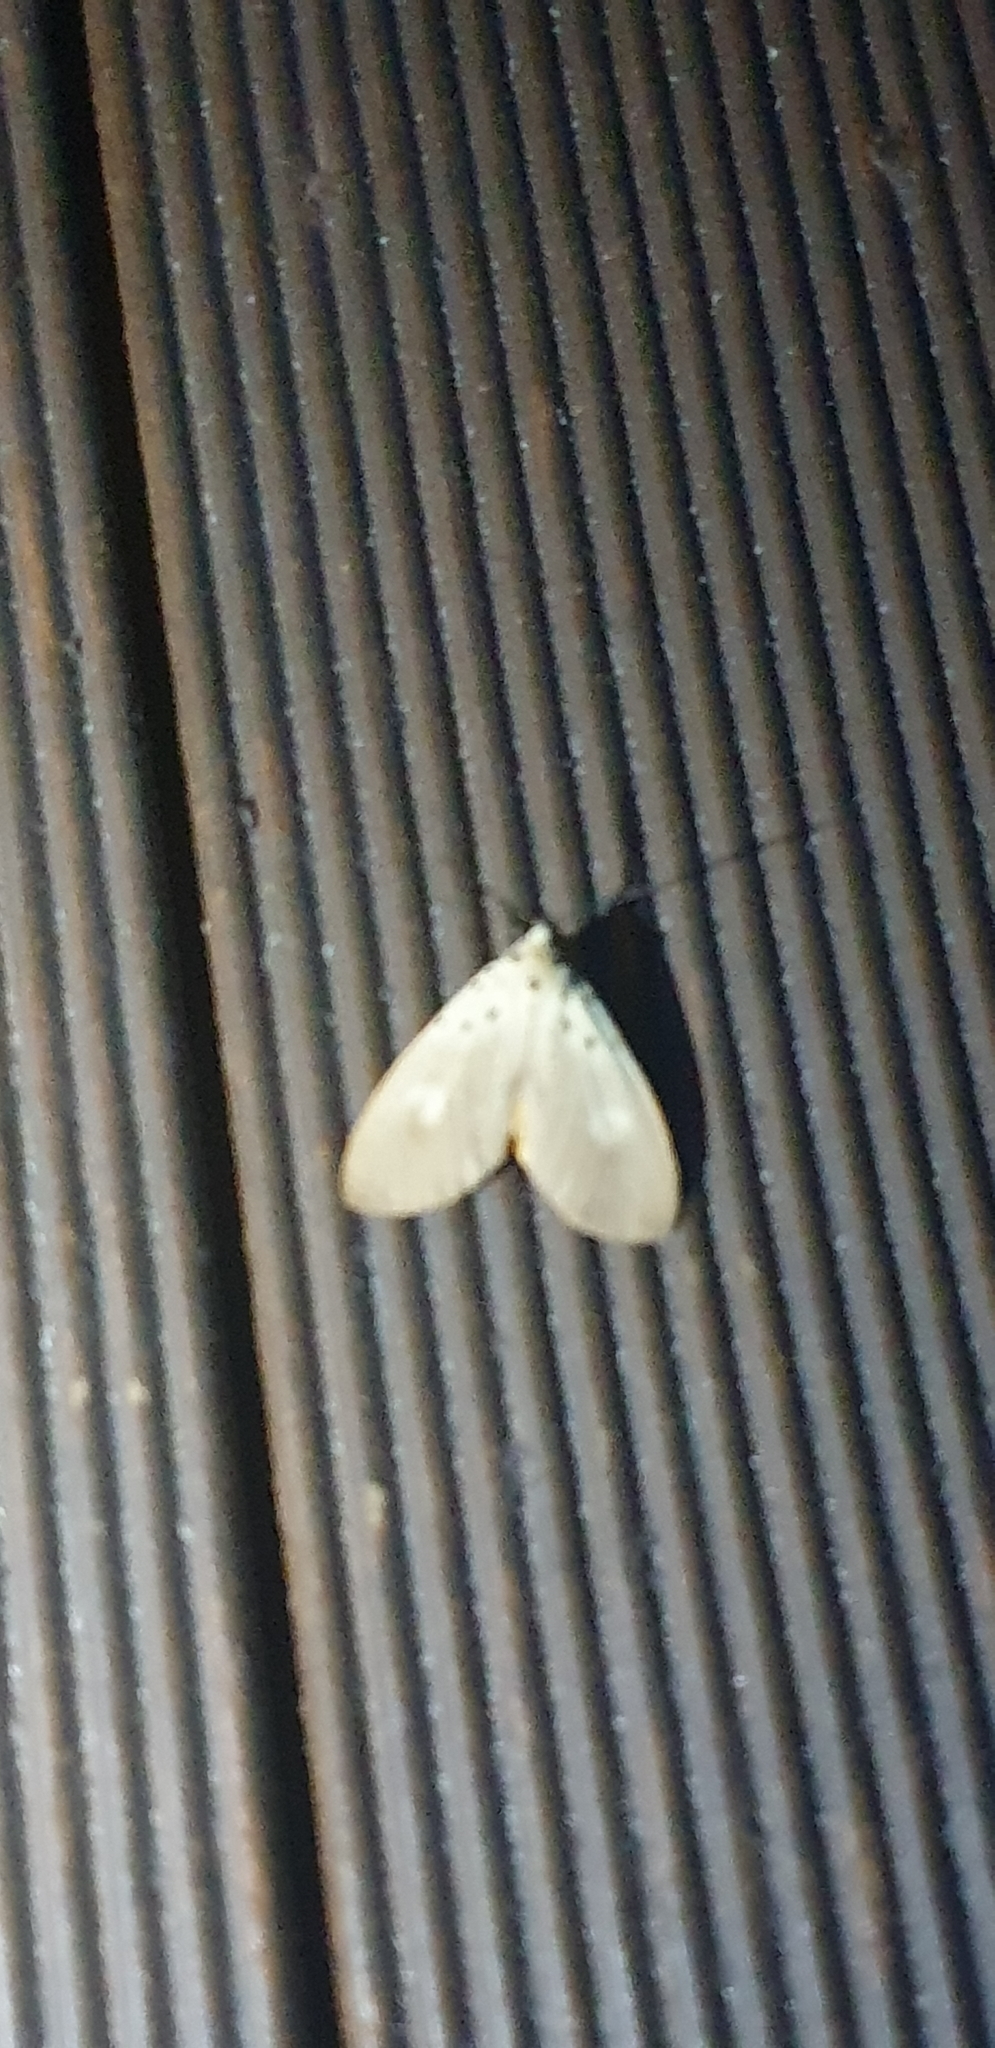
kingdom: Animalia
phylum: Arthropoda
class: Insecta
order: Lepidoptera
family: Erebidae
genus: Asota
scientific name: Asota iodamia
